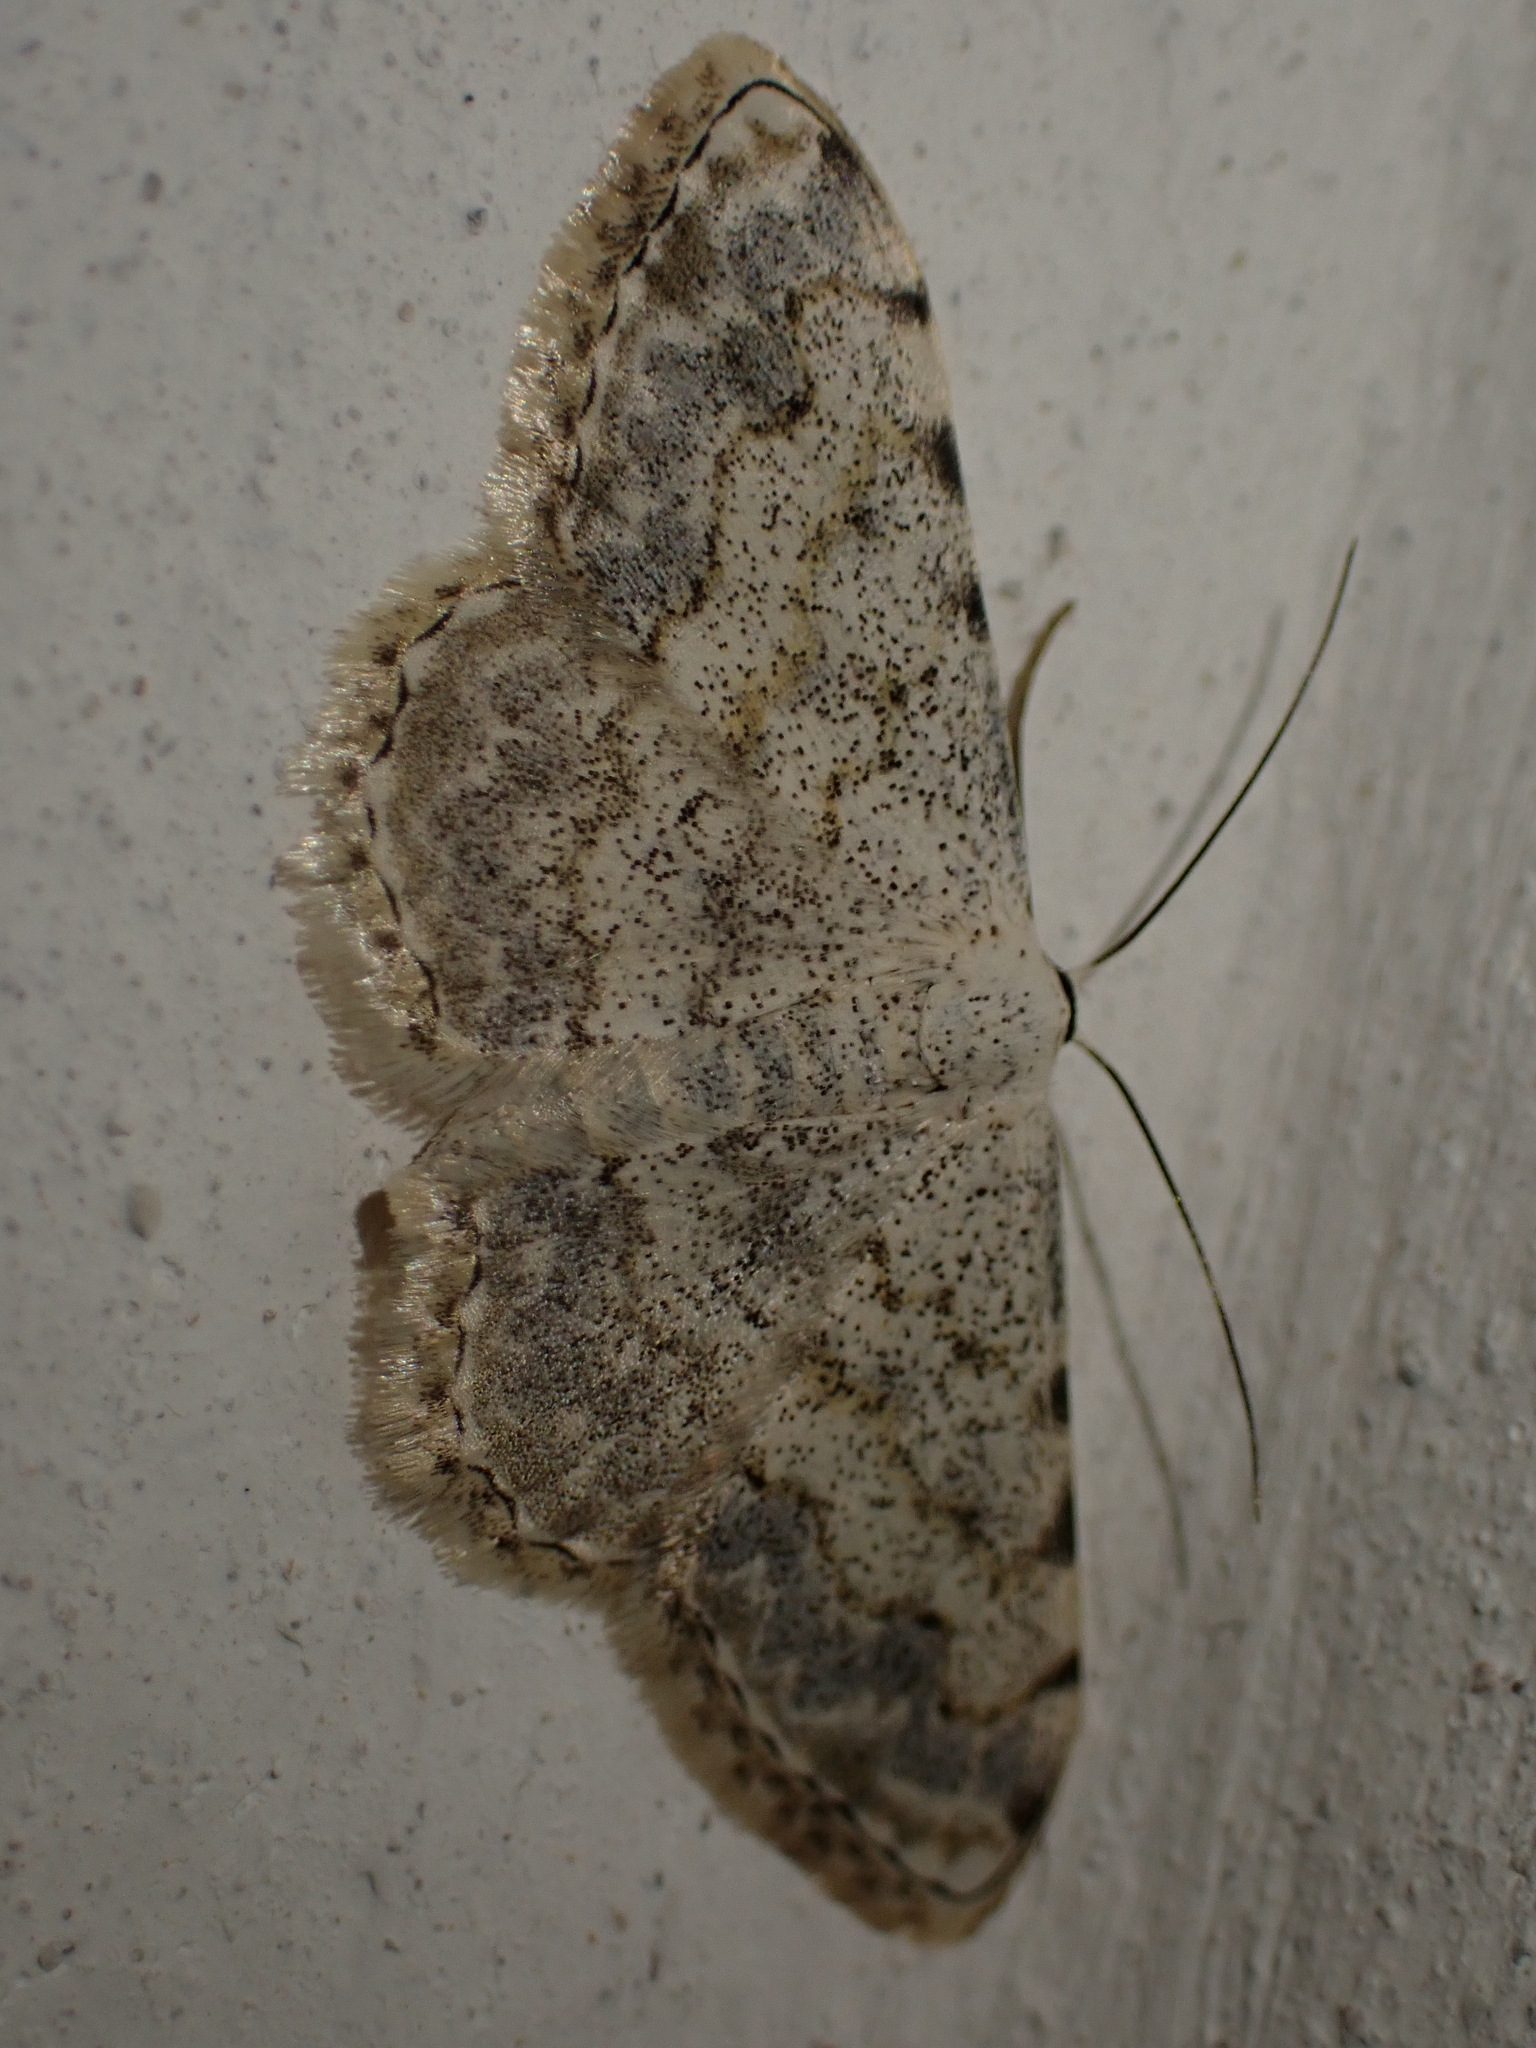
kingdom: Animalia
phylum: Arthropoda
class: Insecta
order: Lepidoptera
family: Geometridae
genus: Scopula
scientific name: Scopula submutata
